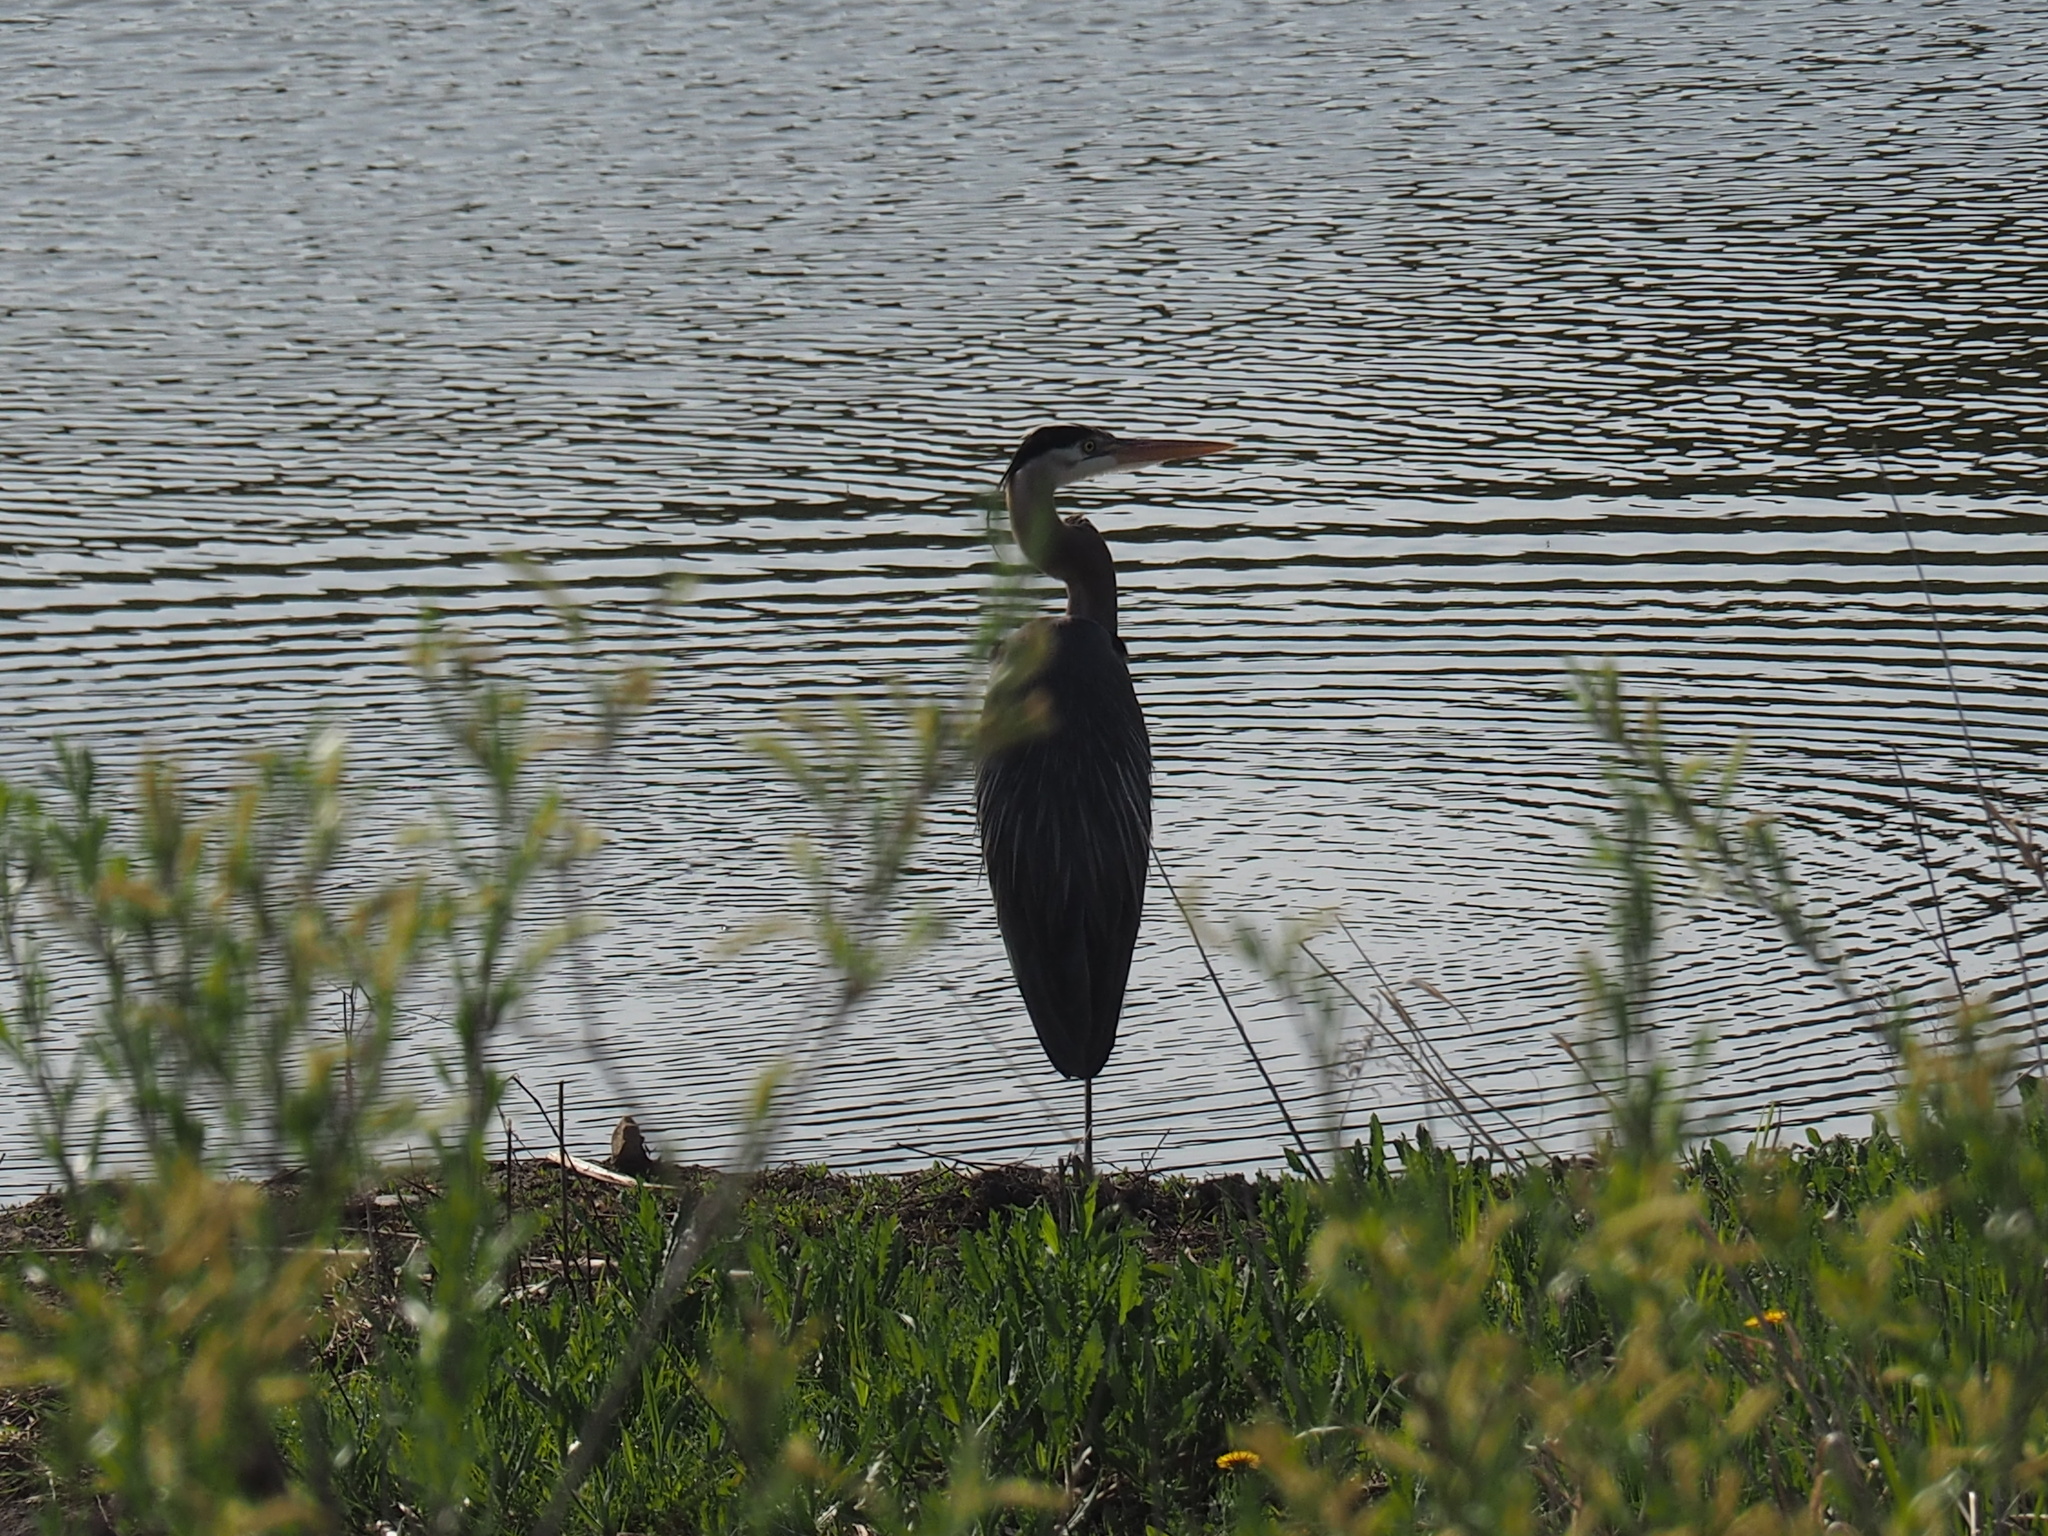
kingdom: Animalia
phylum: Chordata
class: Aves
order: Pelecaniformes
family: Ardeidae
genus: Ardea
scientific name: Ardea herodias
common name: Great blue heron
